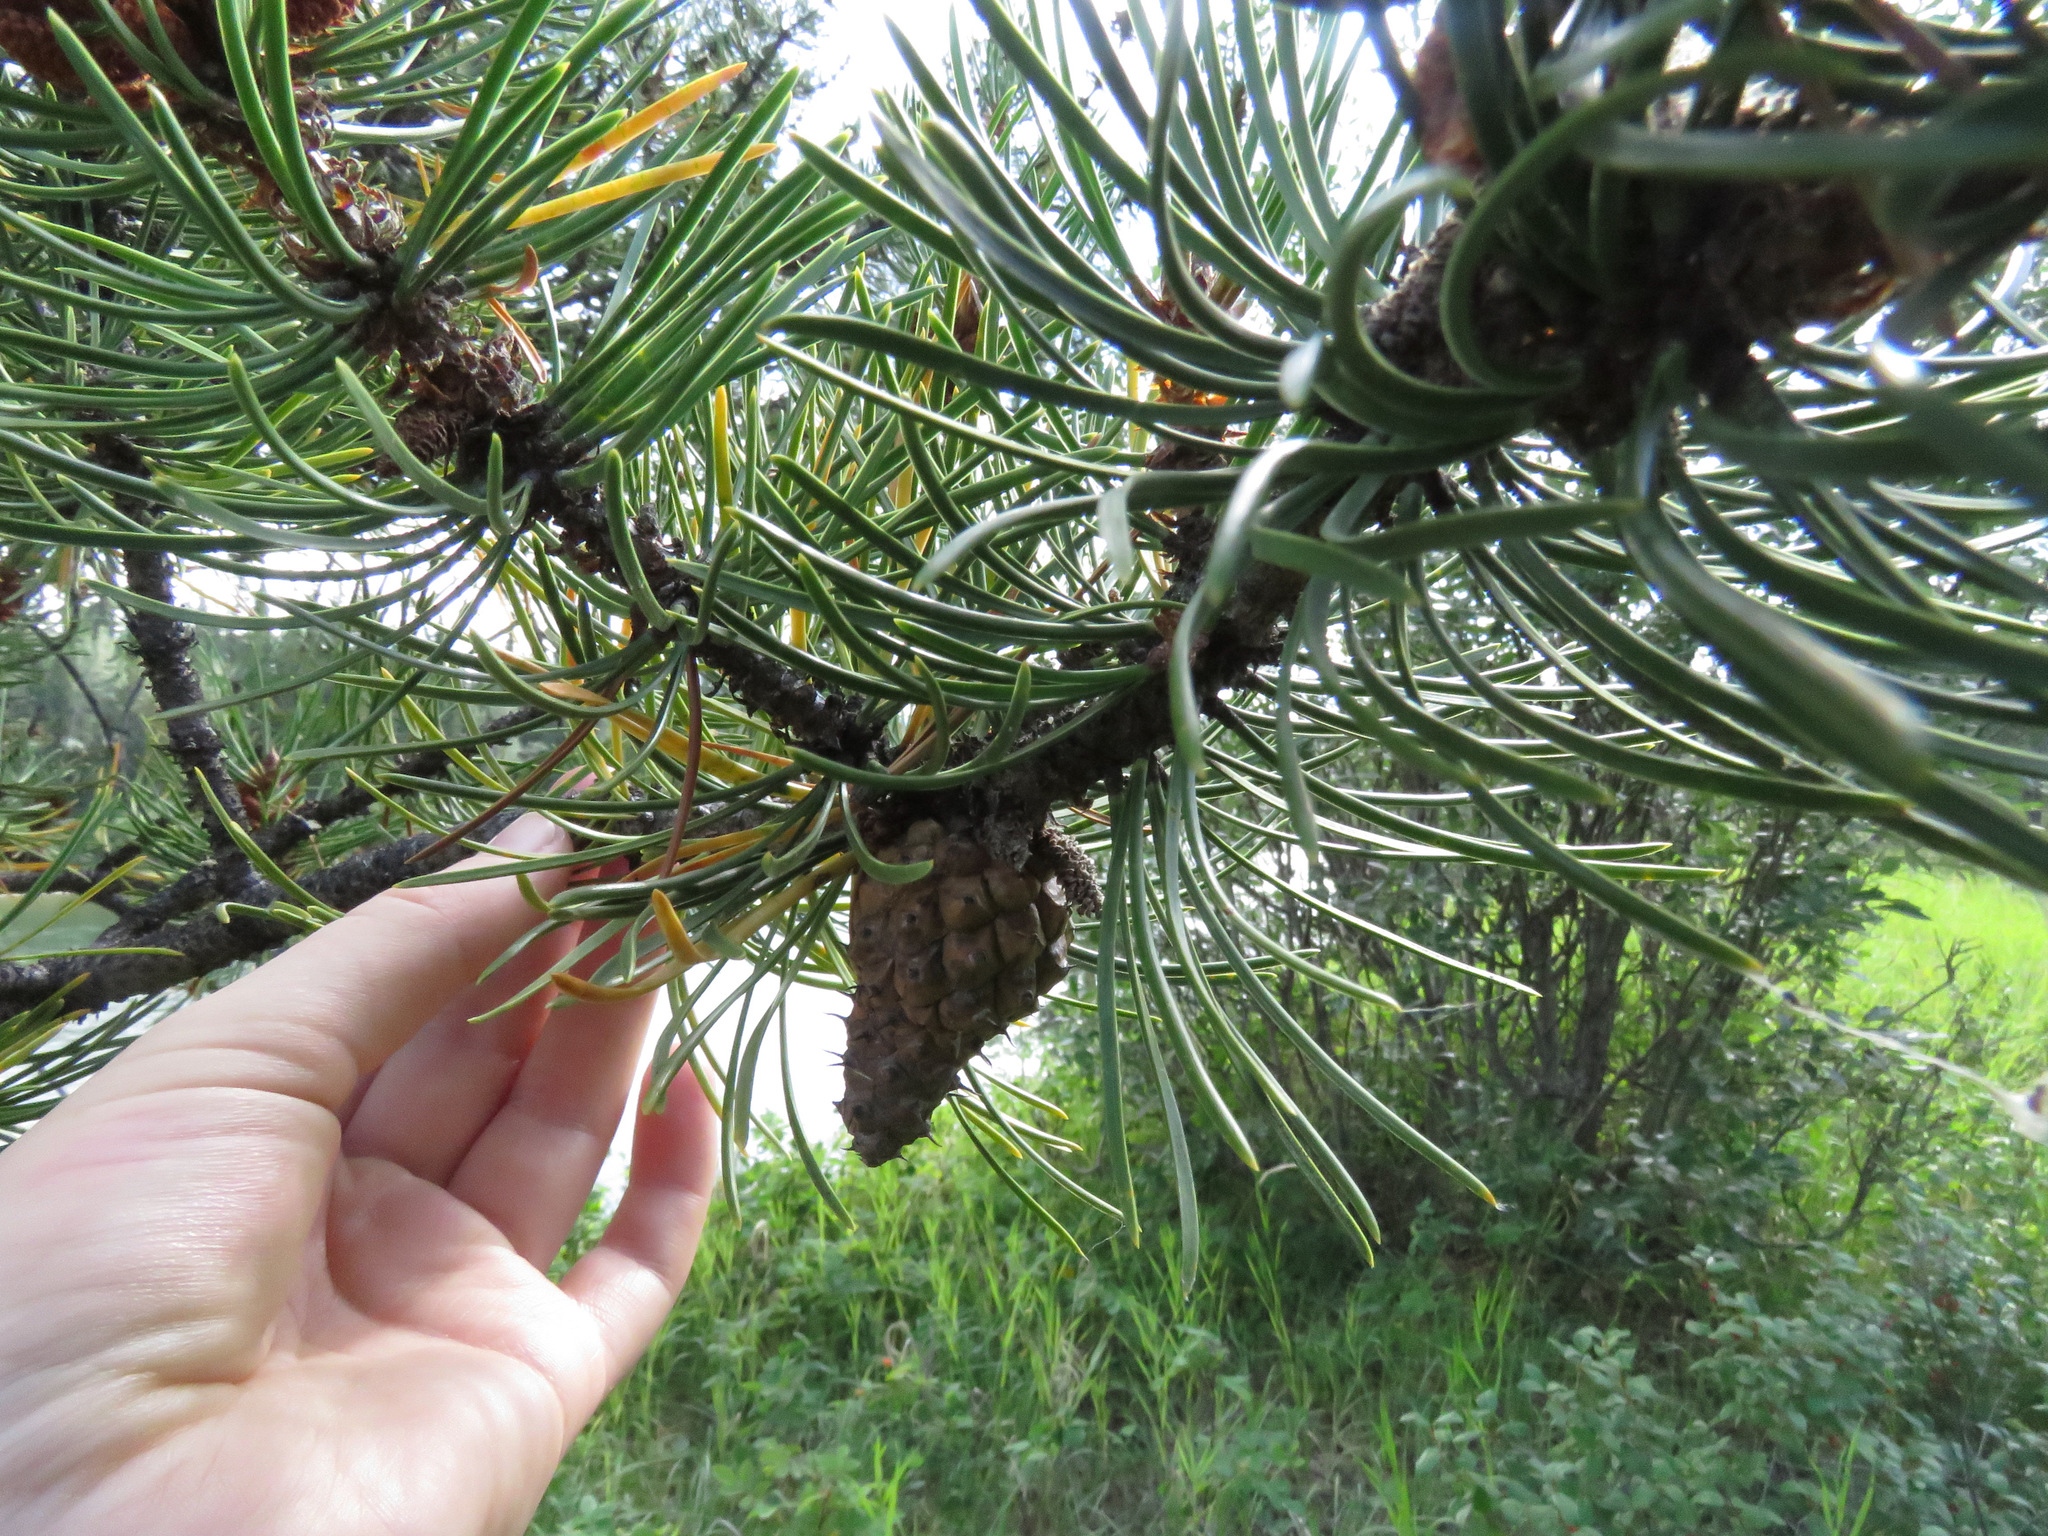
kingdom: Plantae
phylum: Tracheophyta
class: Pinopsida
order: Pinales
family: Pinaceae
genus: Pinus
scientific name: Pinus contorta
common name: Lodgepole pine
